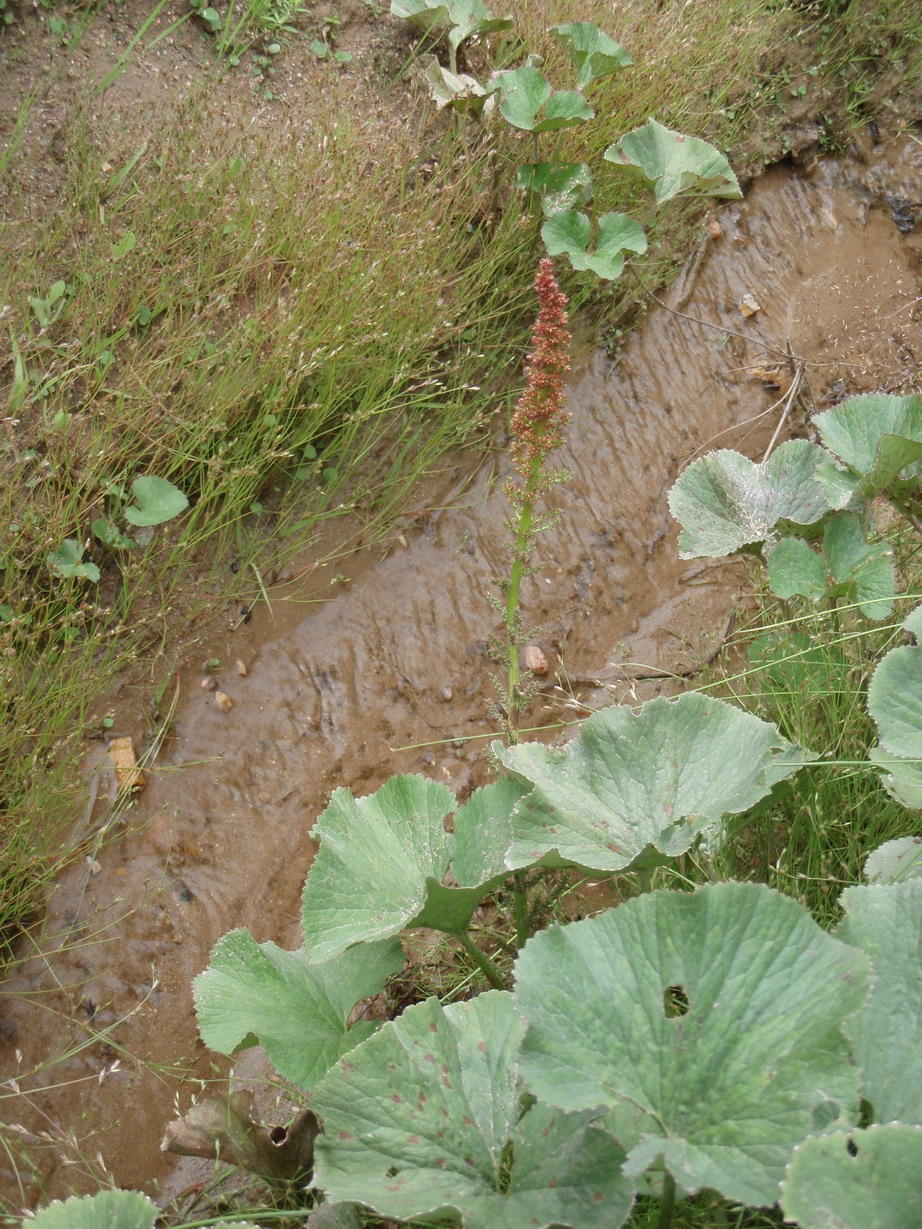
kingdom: Plantae
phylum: Tracheophyta
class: Magnoliopsida
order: Gunnerales
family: Gunneraceae
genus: Gunnera
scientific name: Gunnera perpensa
